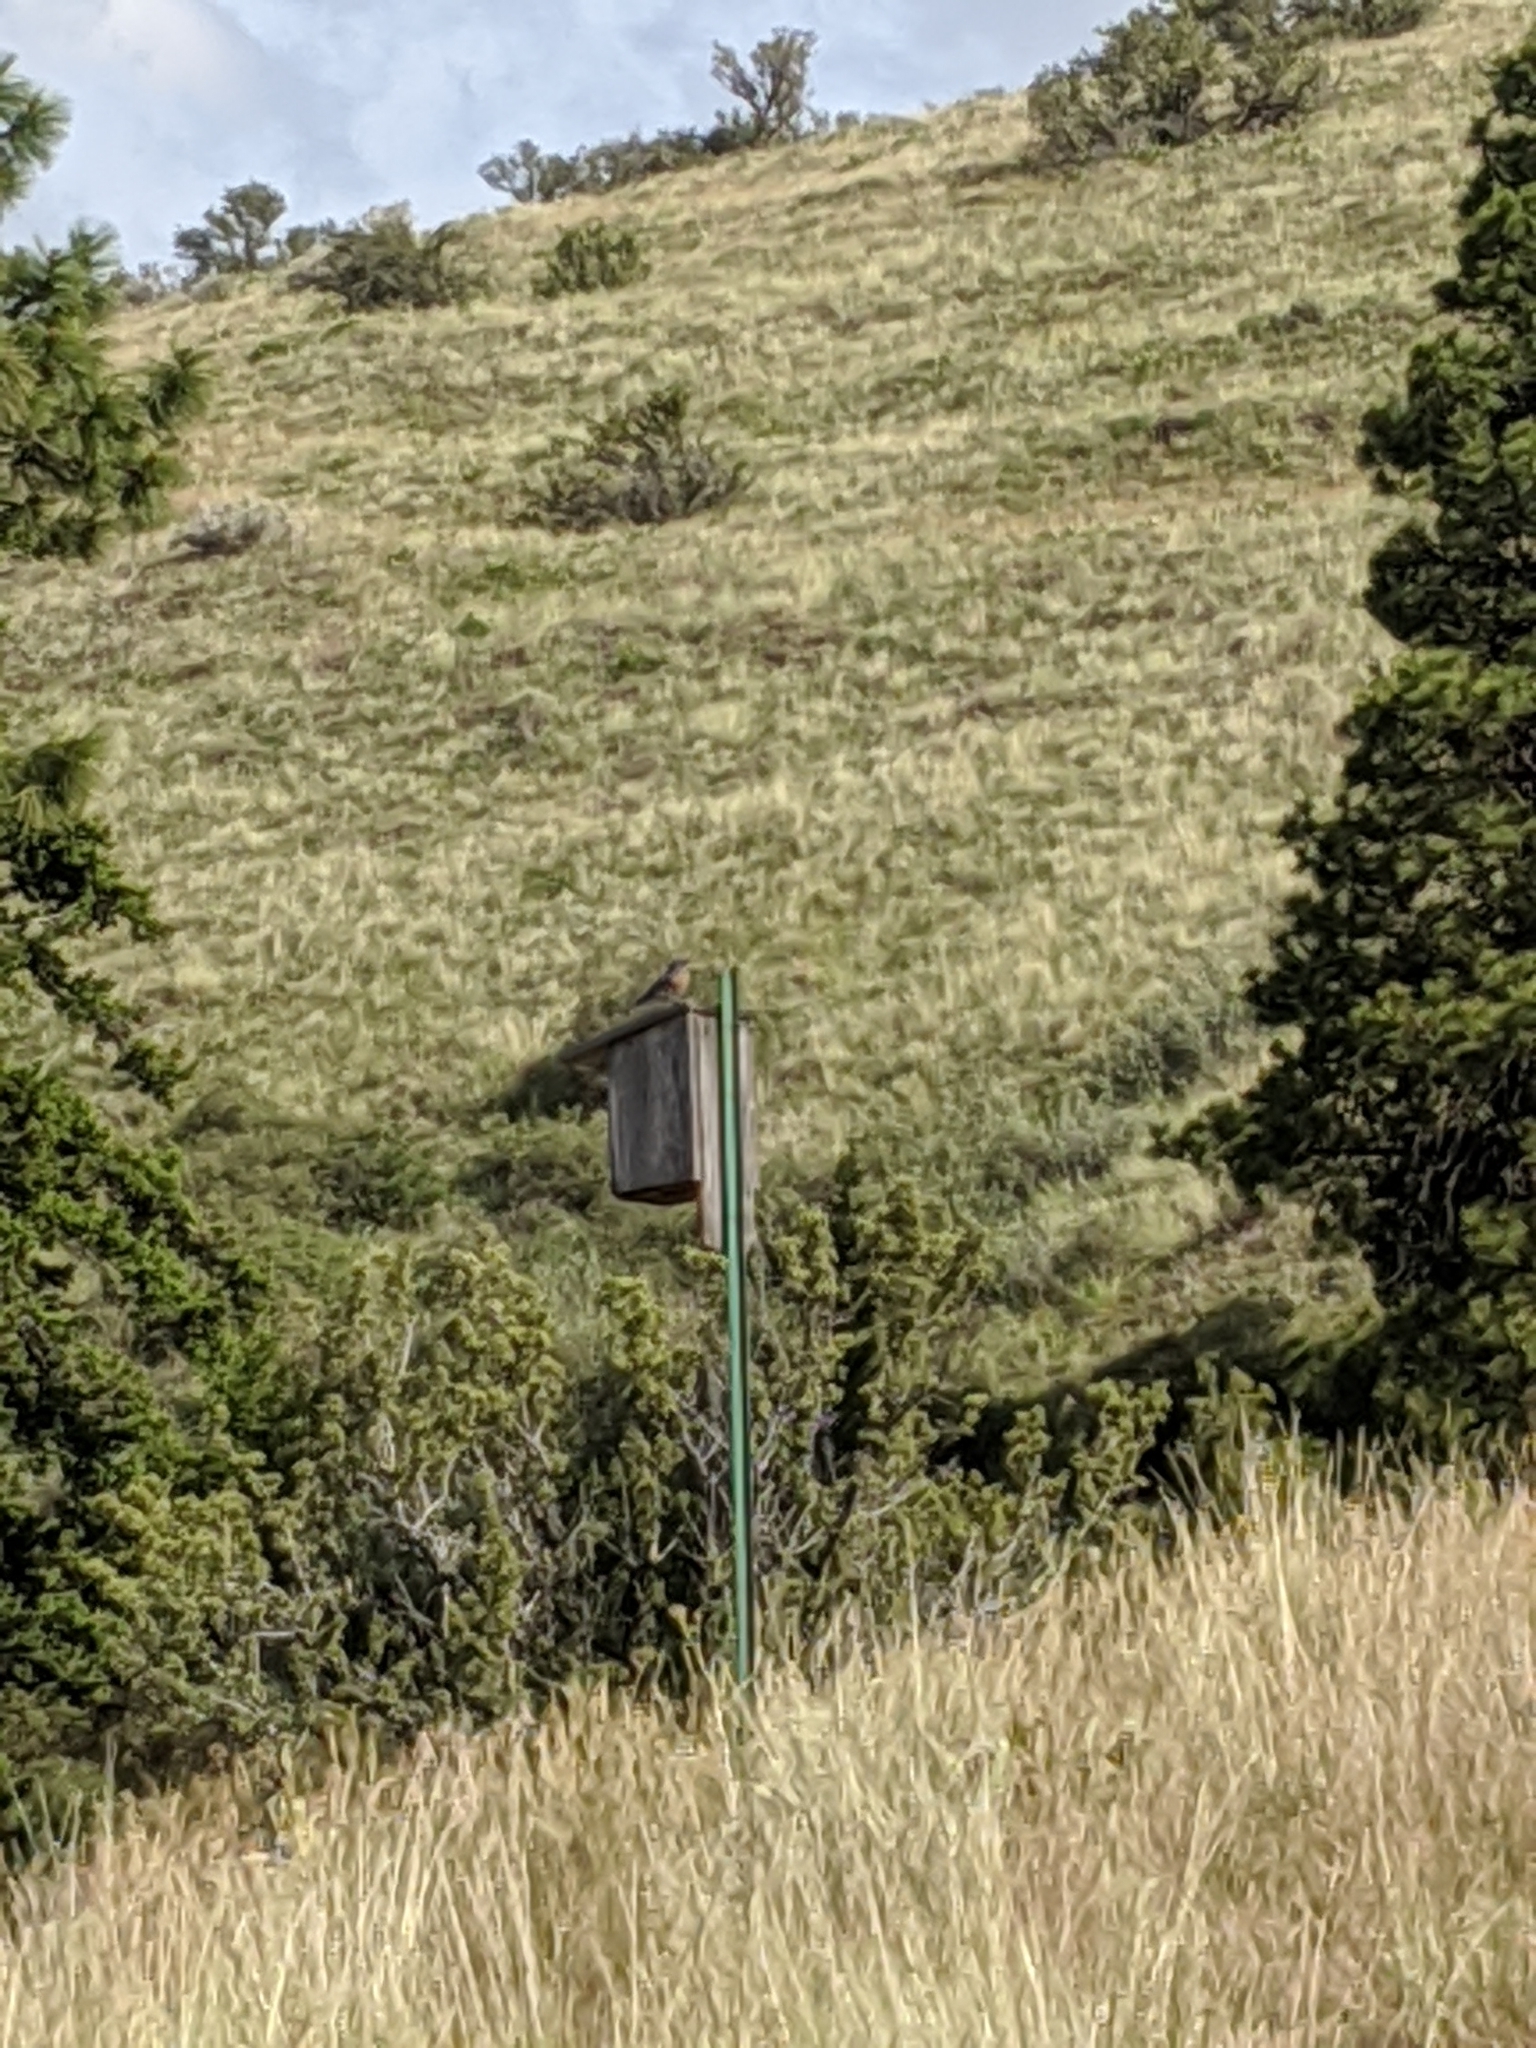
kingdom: Animalia
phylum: Chordata
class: Aves
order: Passeriformes
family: Turdidae
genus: Sialia
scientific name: Sialia mexicana
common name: Western bluebird
